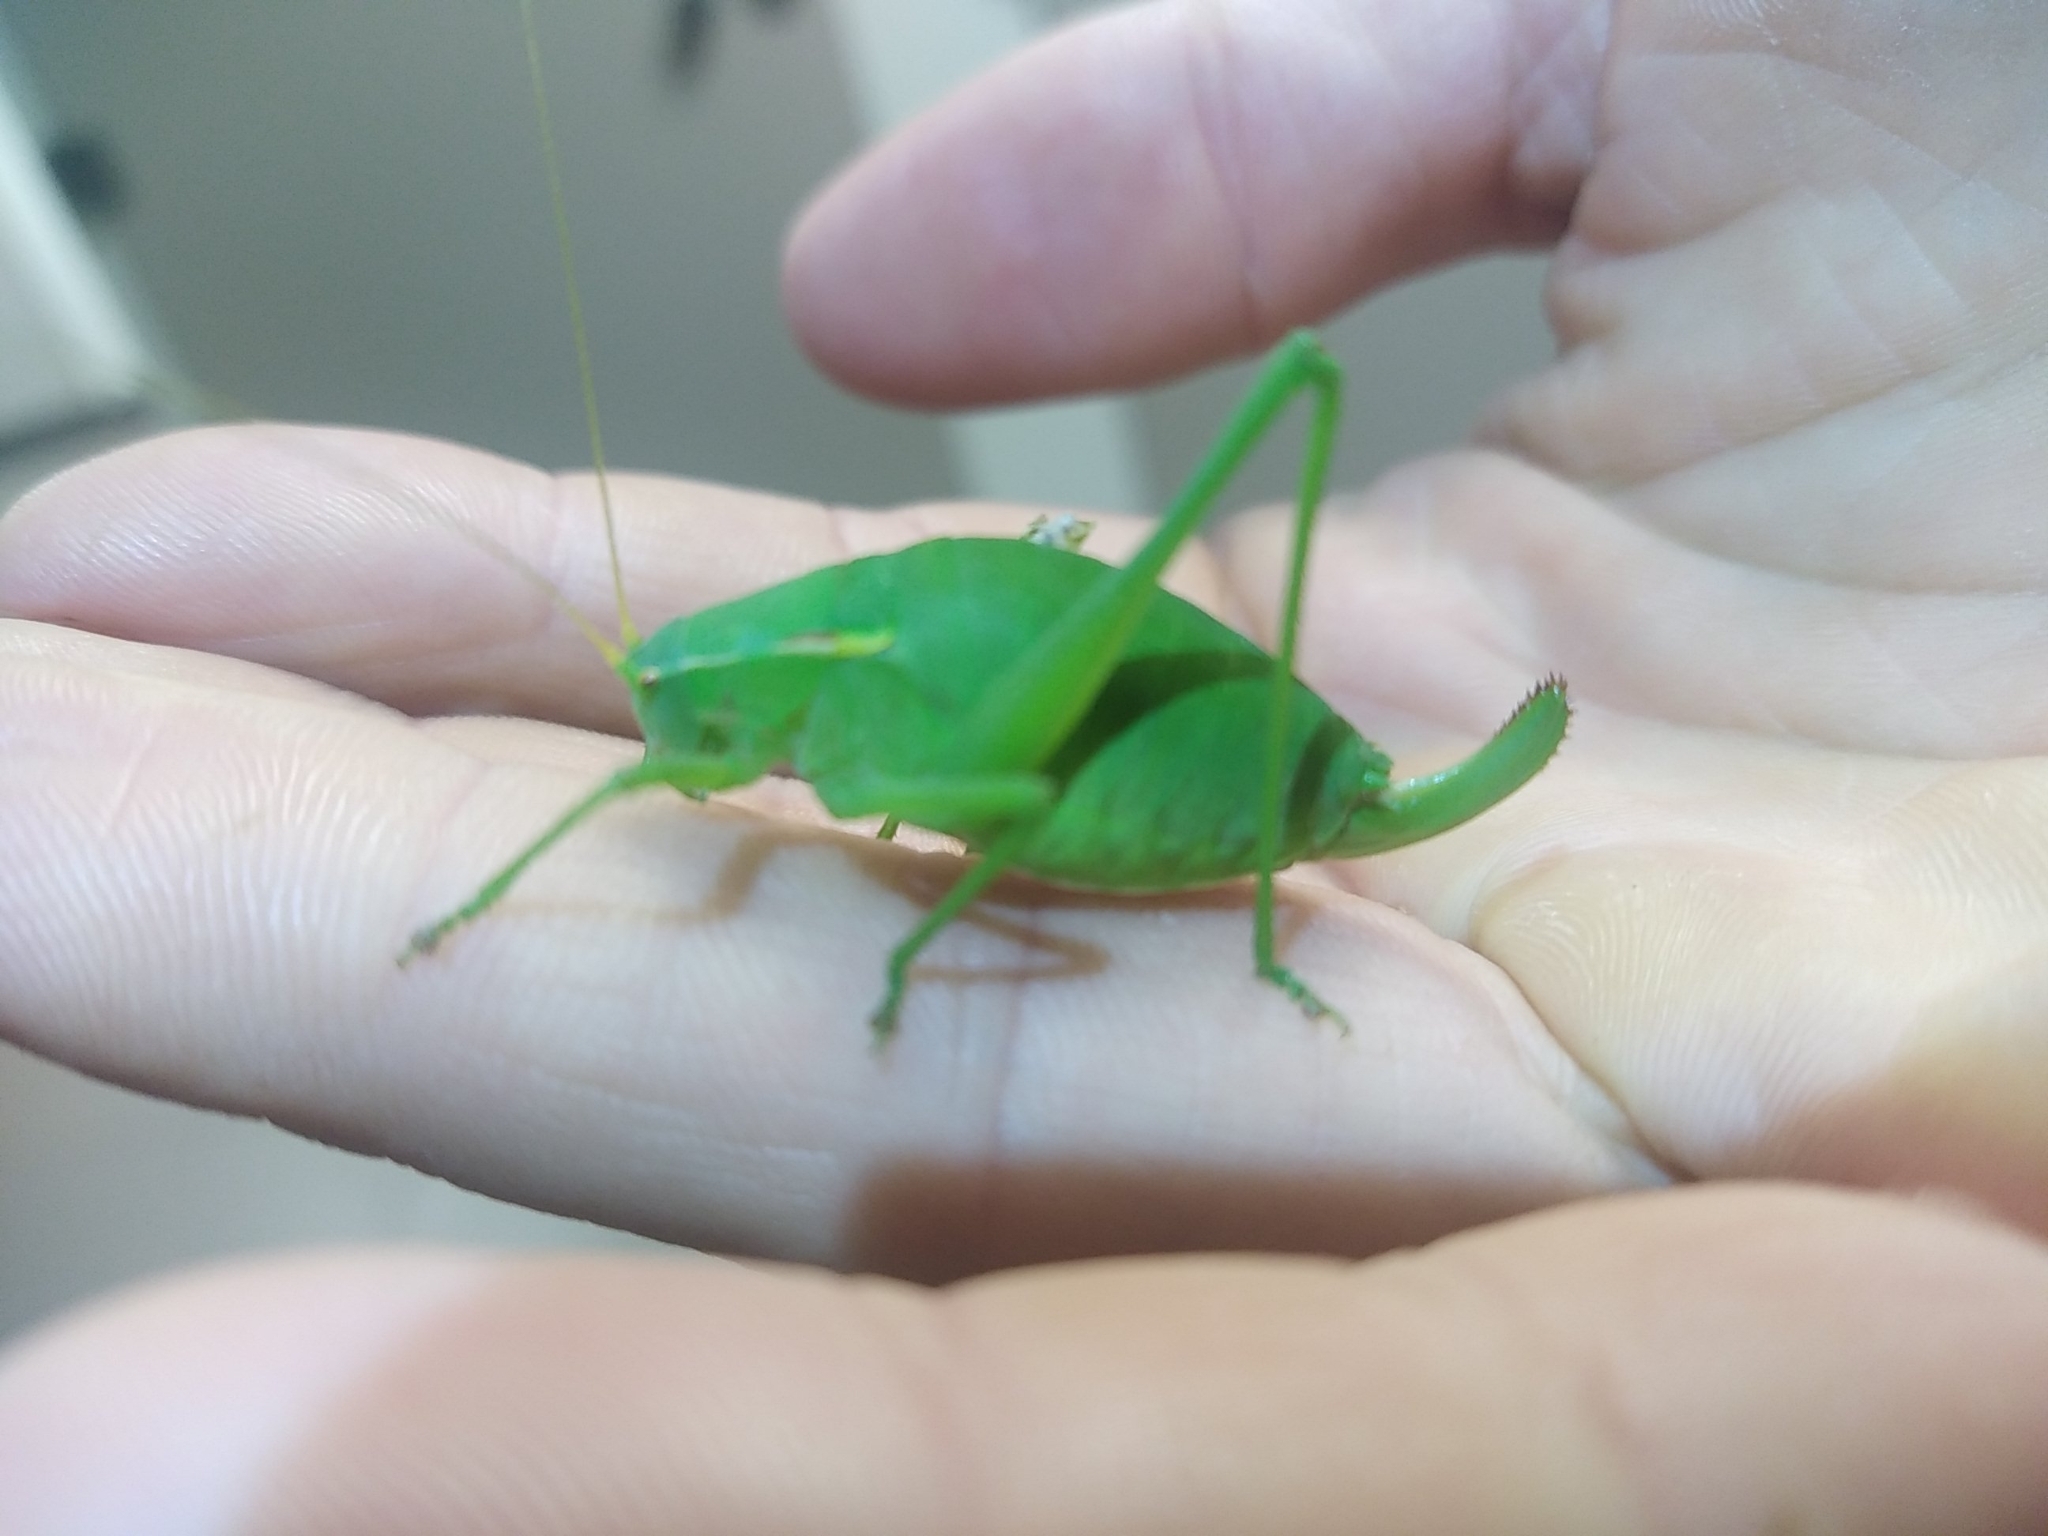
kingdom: Animalia
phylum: Arthropoda
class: Insecta
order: Orthoptera
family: Tettigoniidae
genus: Isophya
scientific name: Isophya pyrenaea
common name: Pyrenean plump bush-cricket
